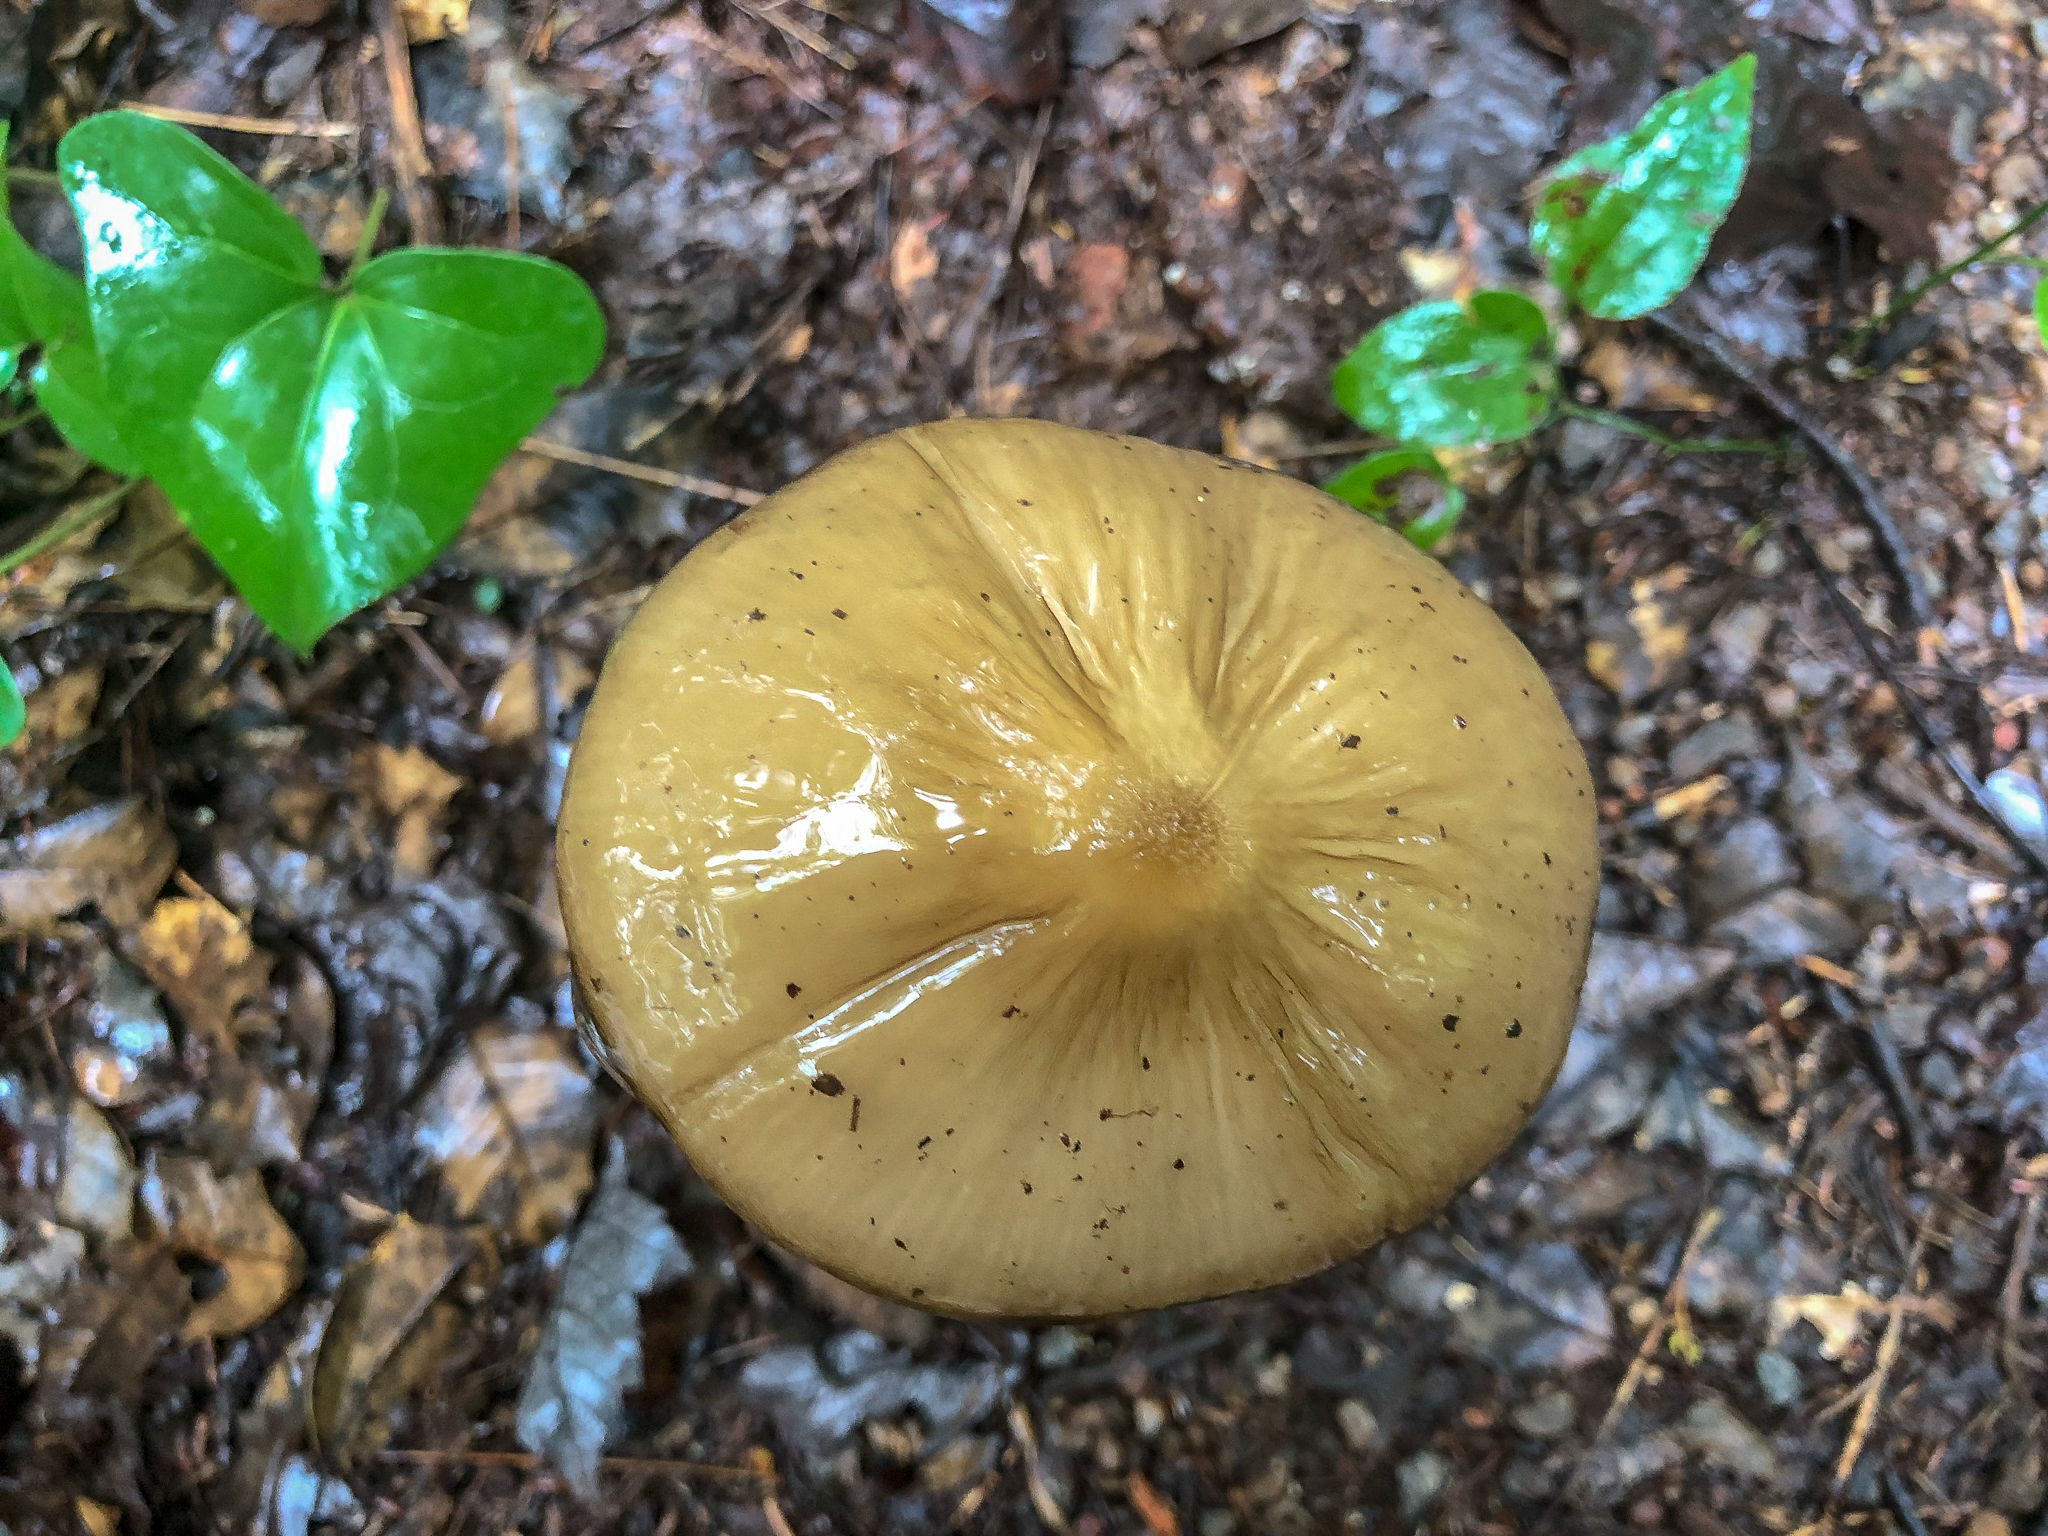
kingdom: Fungi
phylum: Basidiomycota
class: Agaricomycetes
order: Agaricales
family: Physalacriaceae
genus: Hymenopellis
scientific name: Hymenopellis furfuracea
